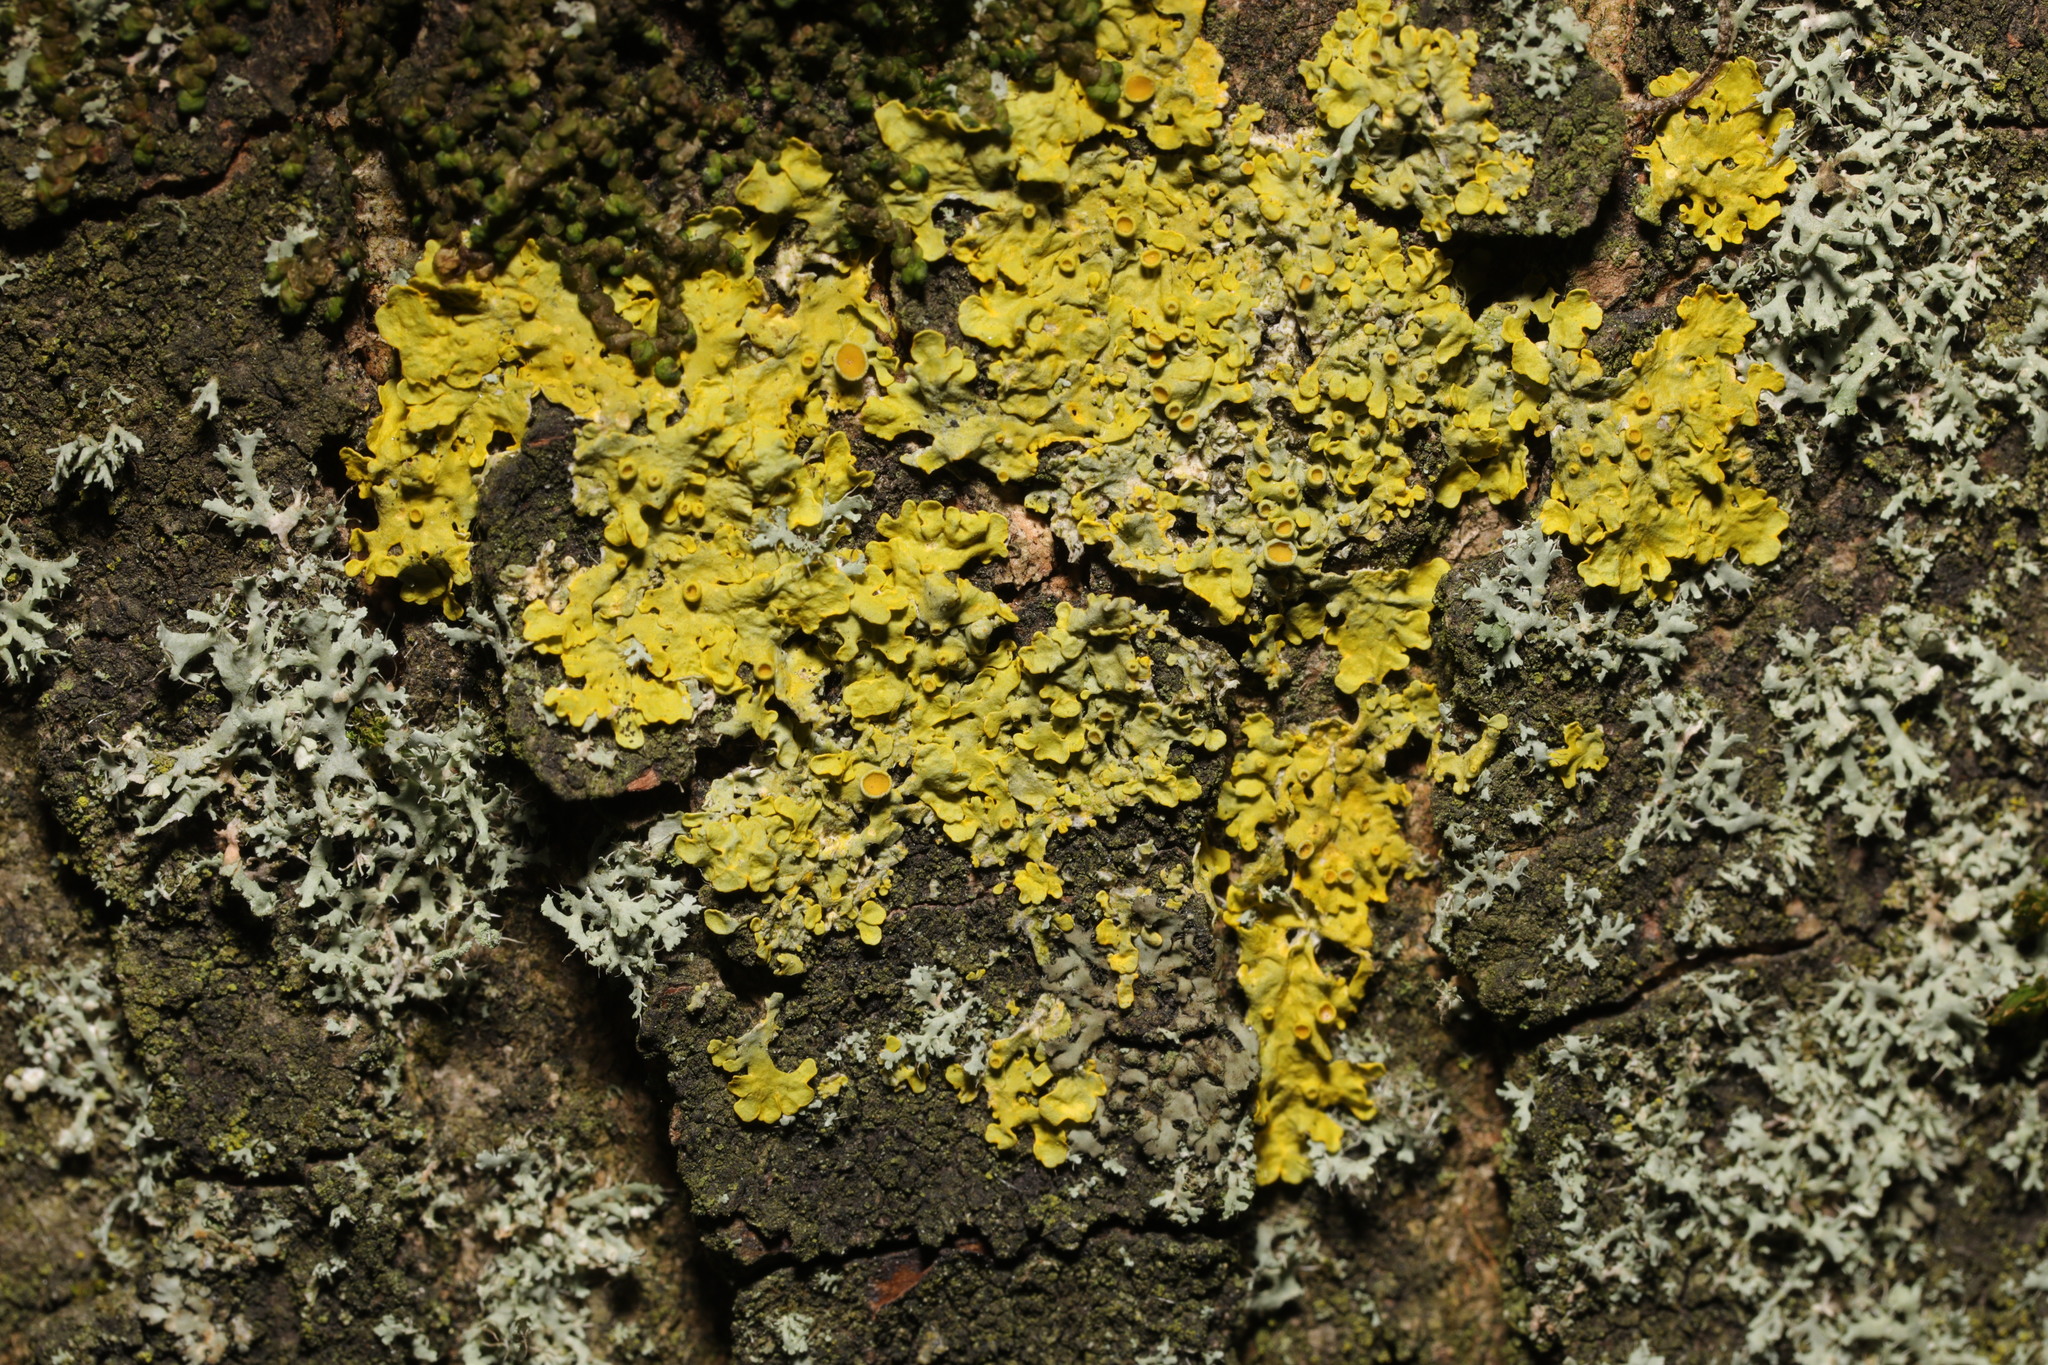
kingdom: Fungi
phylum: Ascomycota
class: Lecanoromycetes
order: Teloschistales
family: Teloschistaceae
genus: Xanthoria
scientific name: Xanthoria parietina
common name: Common orange lichen
